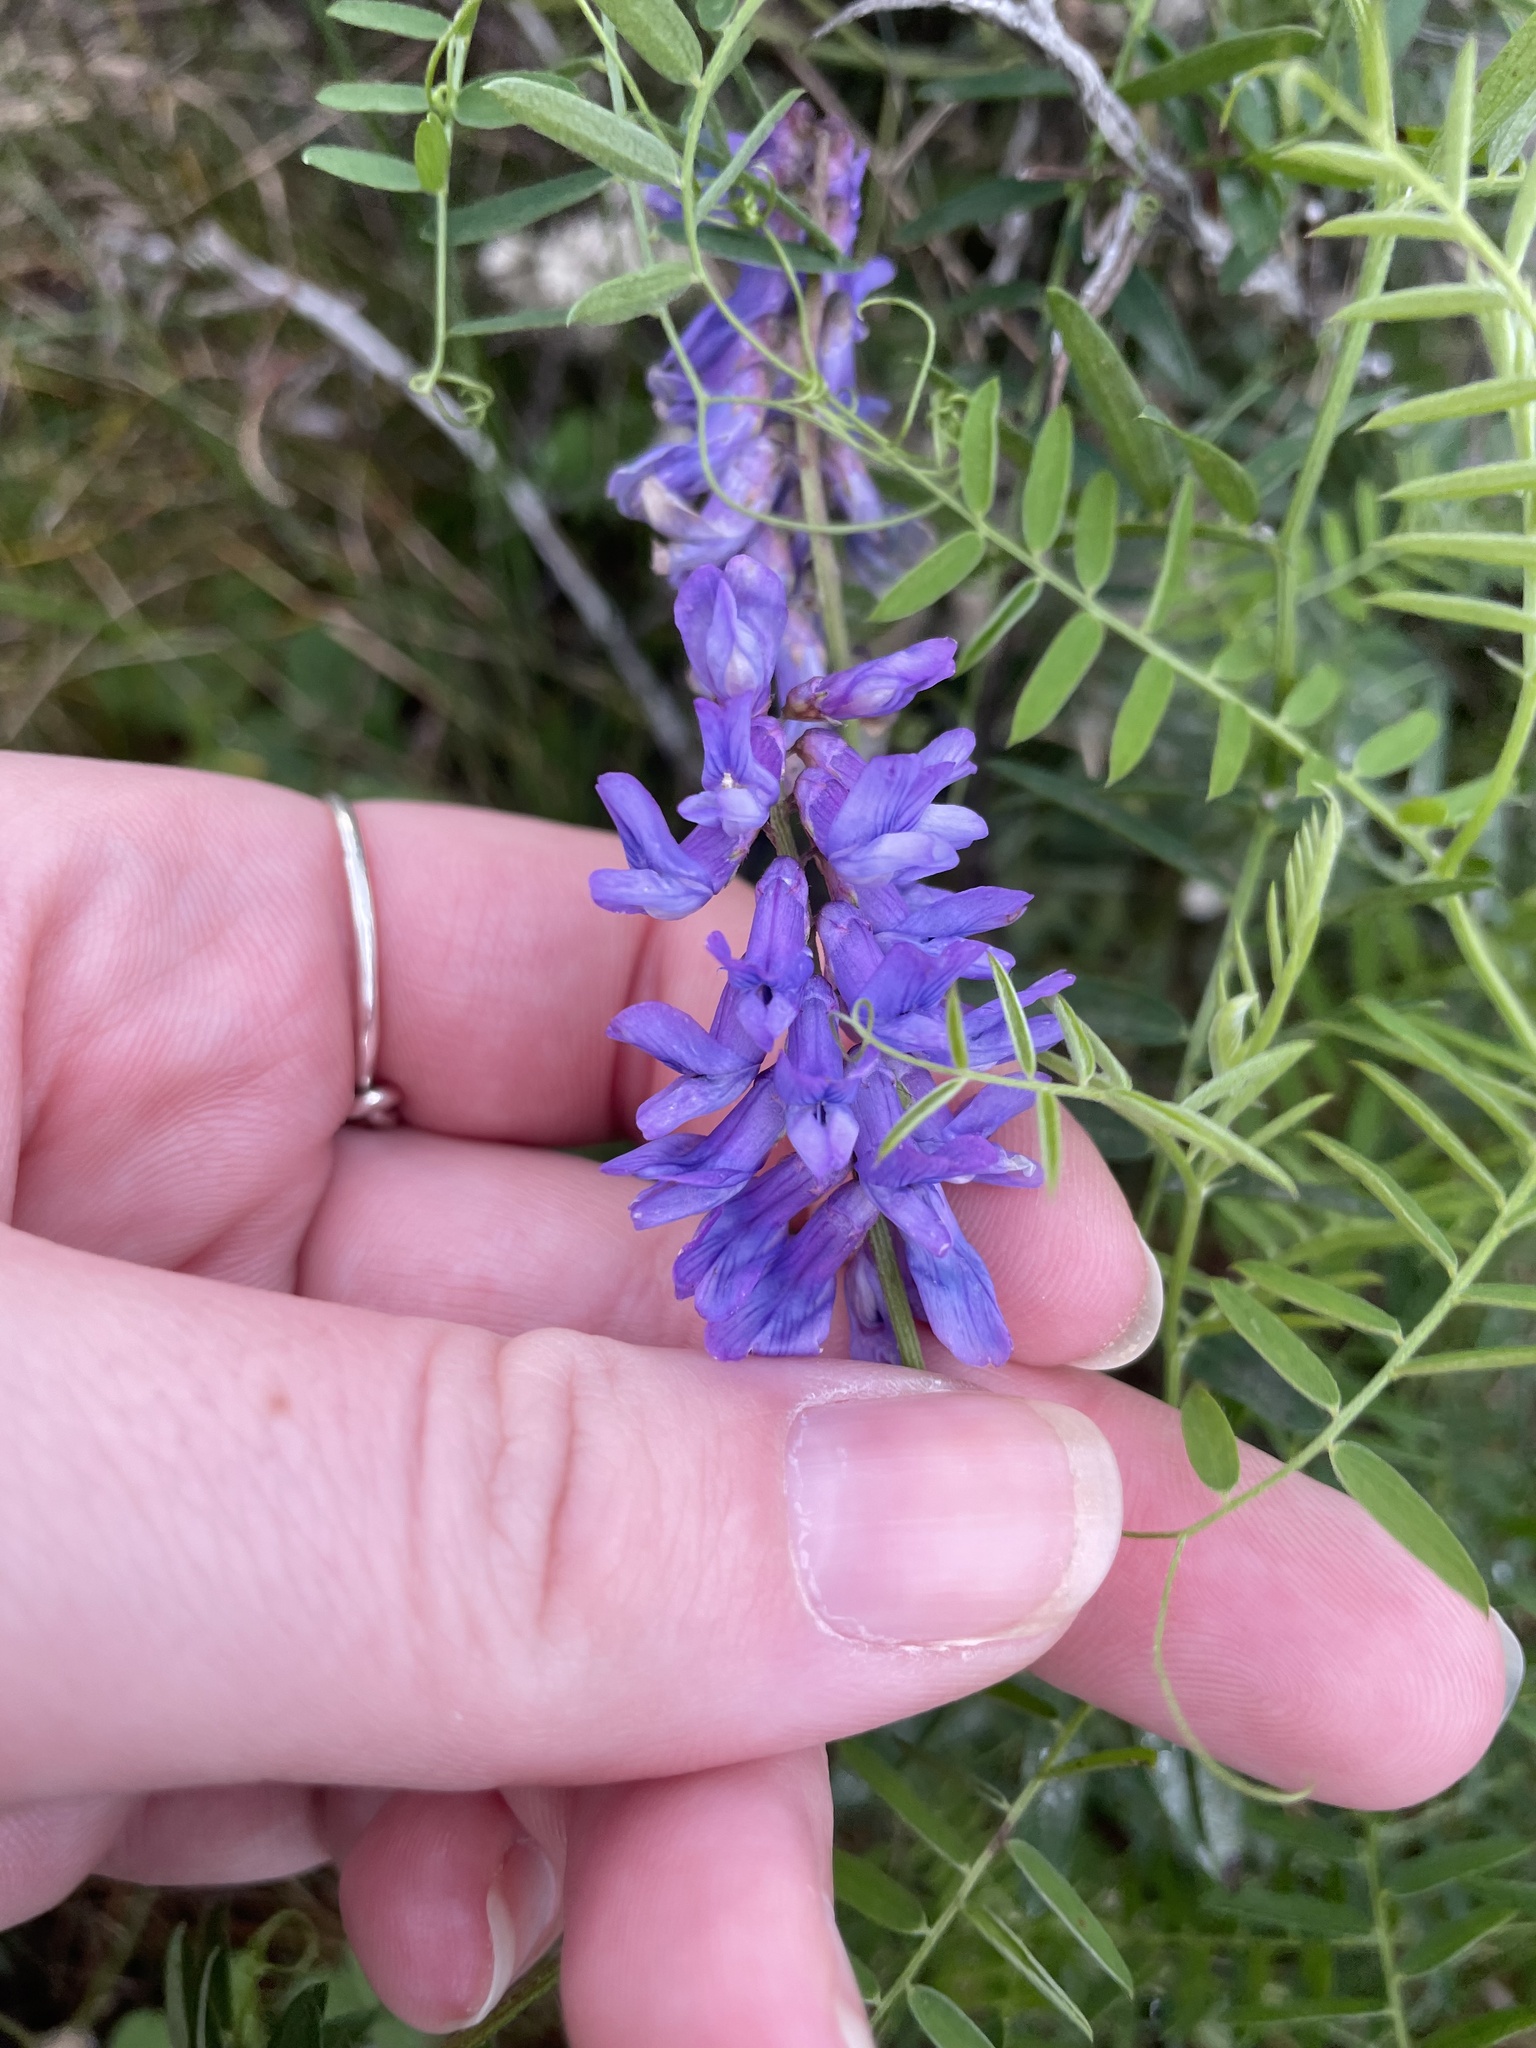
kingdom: Plantae
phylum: Tracheophyta
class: Magnoliopsida
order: Fabales
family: Fabaceae
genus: Vicia
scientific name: Vicia cracca
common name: Bird vetch
